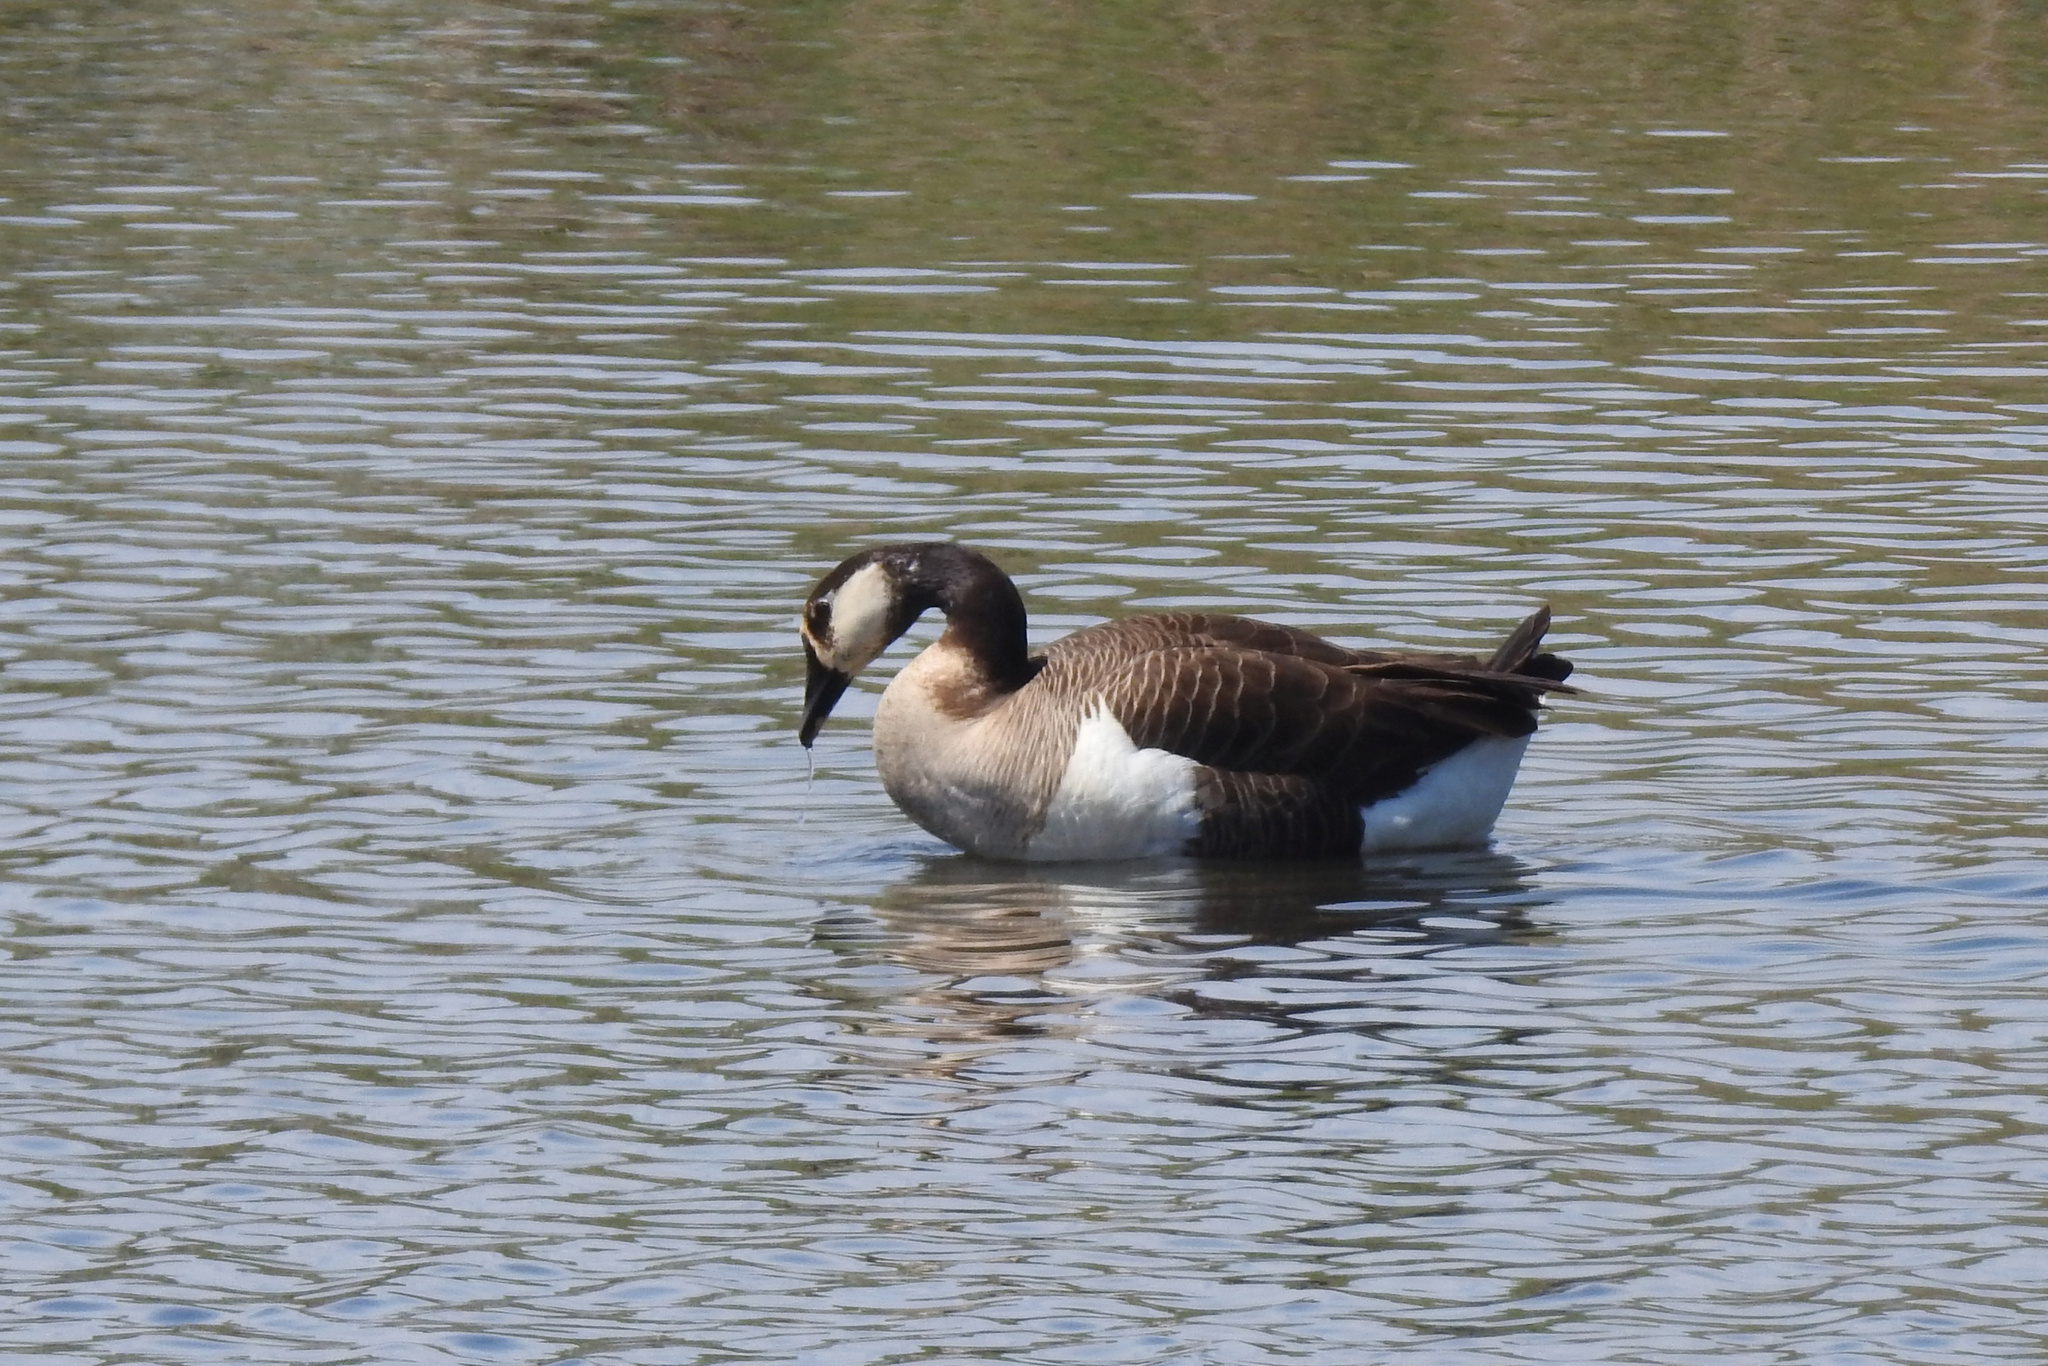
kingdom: Animalia
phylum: Chordata
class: Aves
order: Anseriformes
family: Anatidae
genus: Branta
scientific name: Branta canadensis
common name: Canada goose
